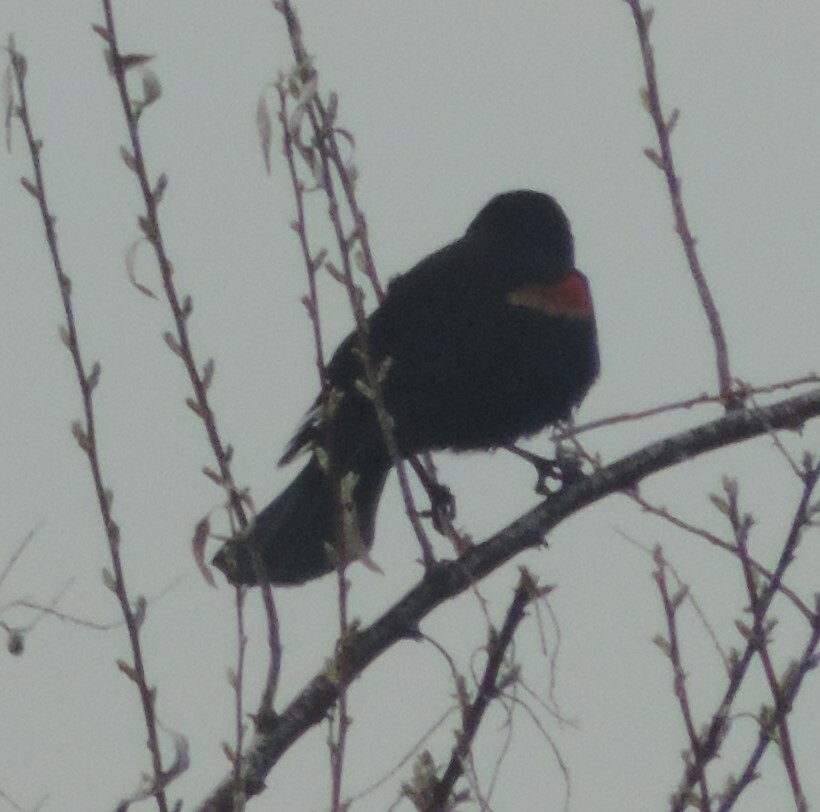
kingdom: Animalia
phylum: Chordata
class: Aves
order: Passeriformes
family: Icteridae
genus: Agelaius
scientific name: Agelaius phoeniceus
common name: Red-winged blackbird
